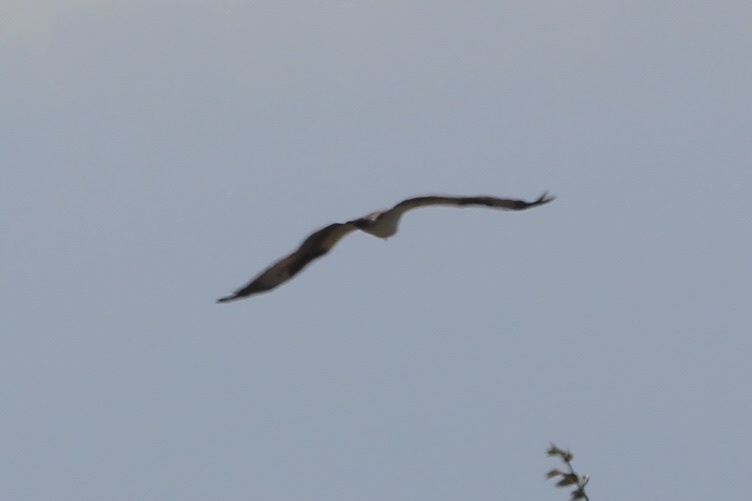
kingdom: Animalia
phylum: Chordata
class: Aves
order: Accipitriformes
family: Pandionidae
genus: Pandion
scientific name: Pandion haliaetus
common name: Osprey
